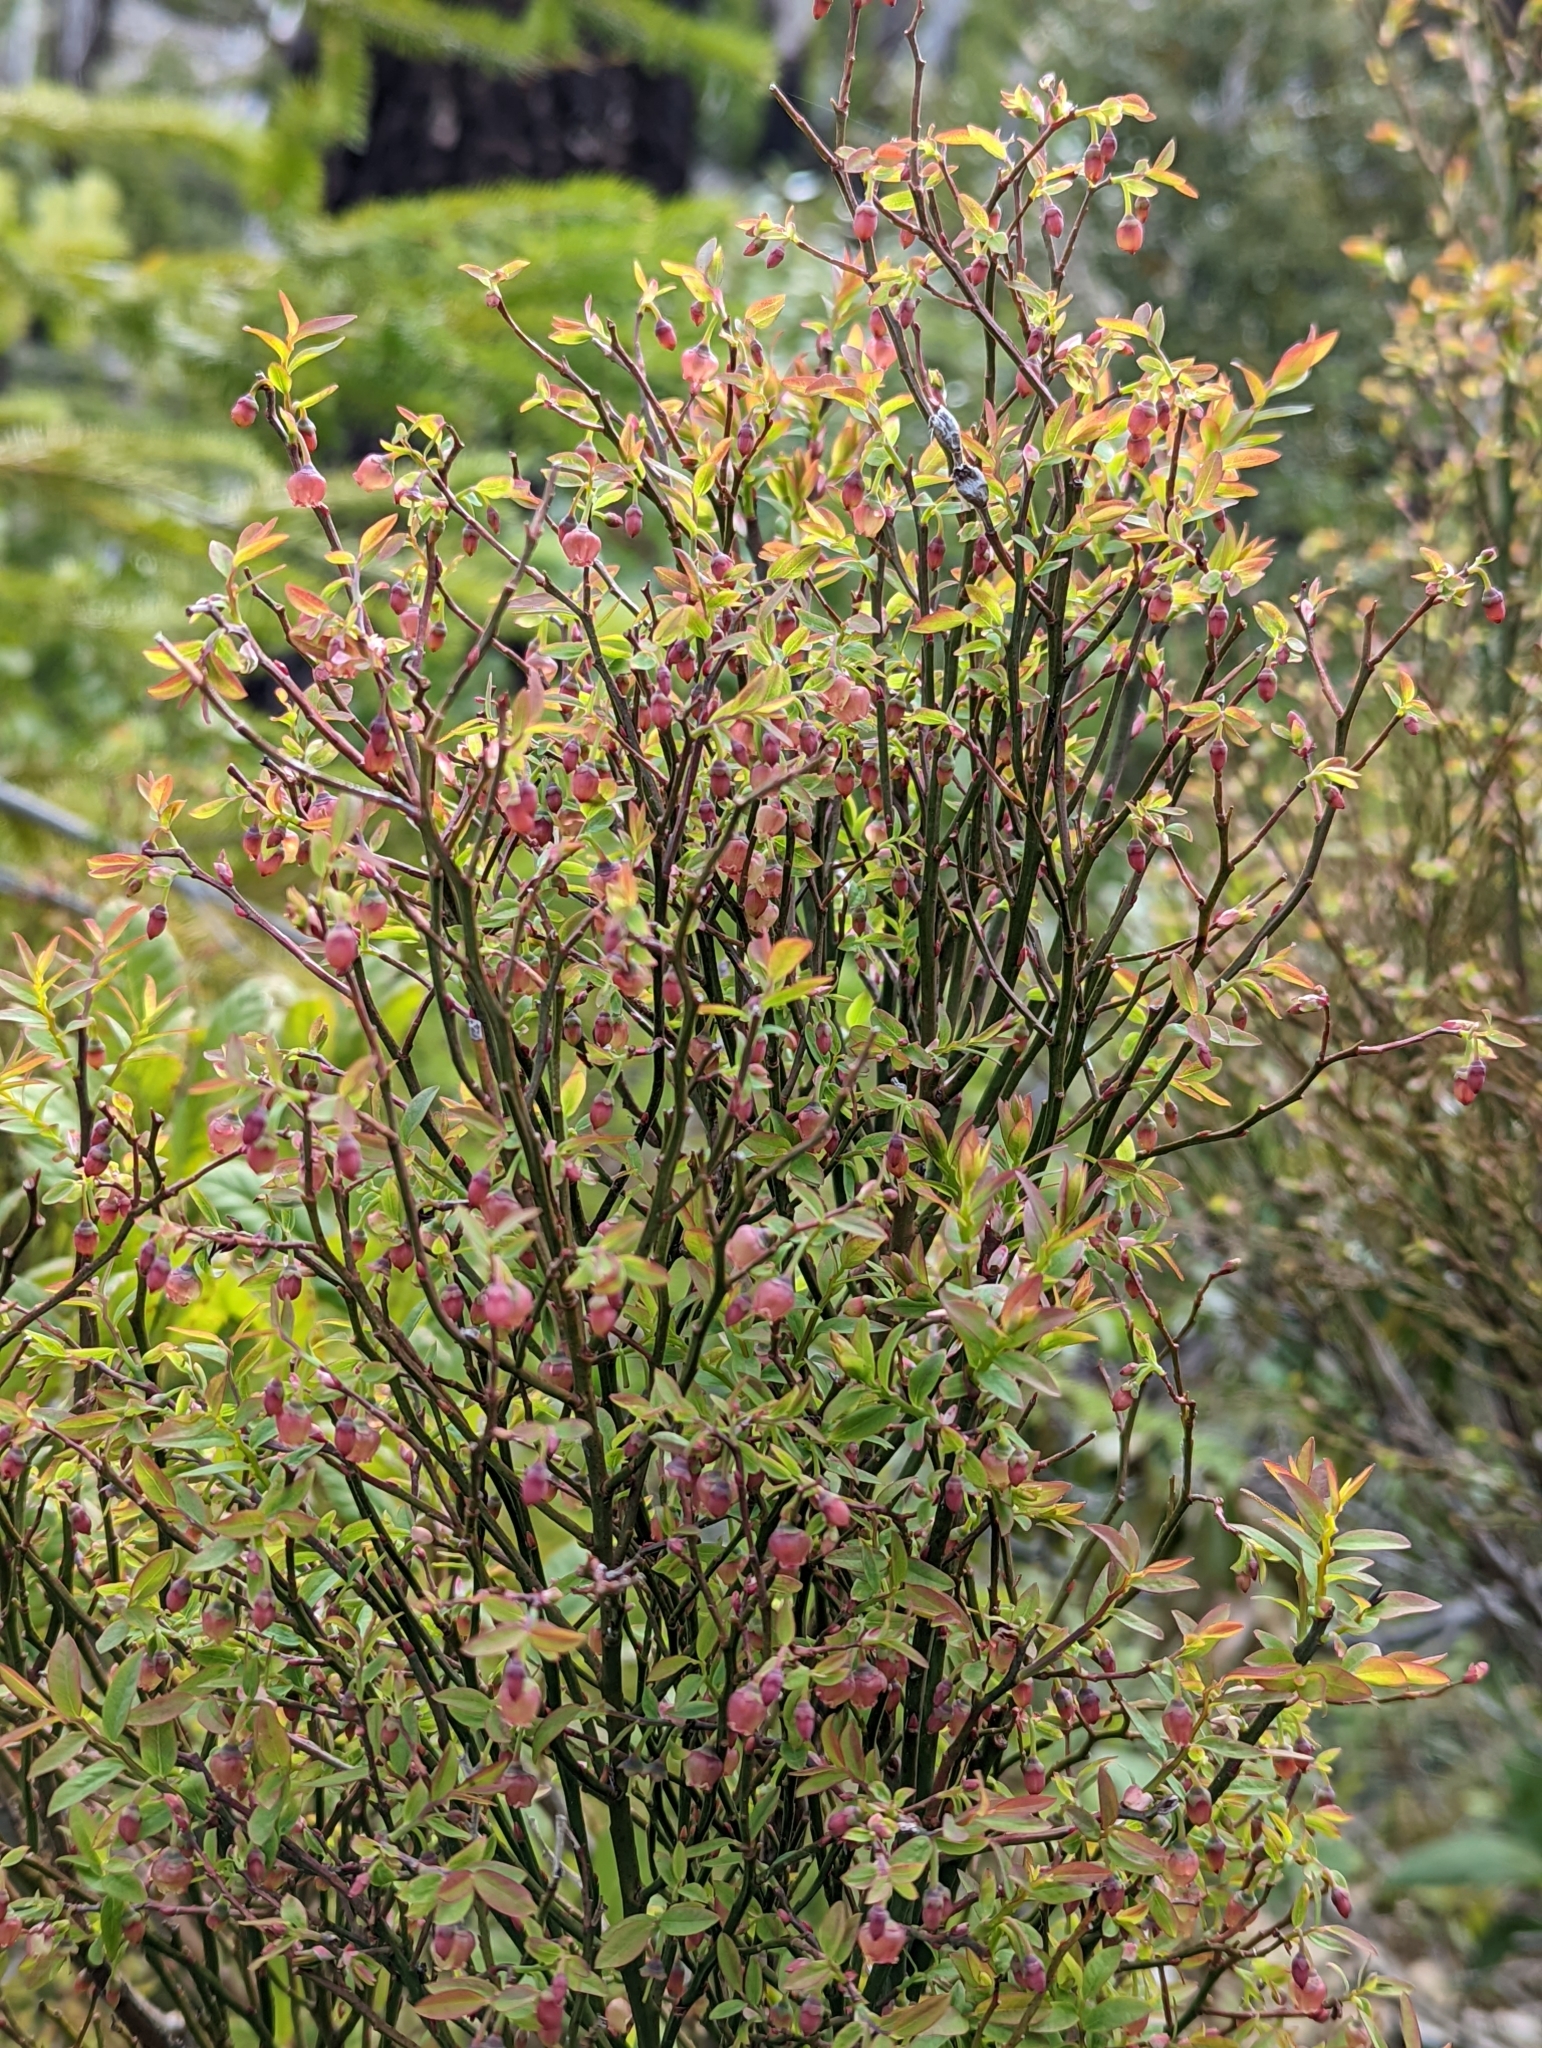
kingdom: Plantae
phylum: Tracheophyta
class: Magnoliopsida
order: Ericales
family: Ericaceae
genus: Vaccinium
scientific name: Vaccinium scoparium
